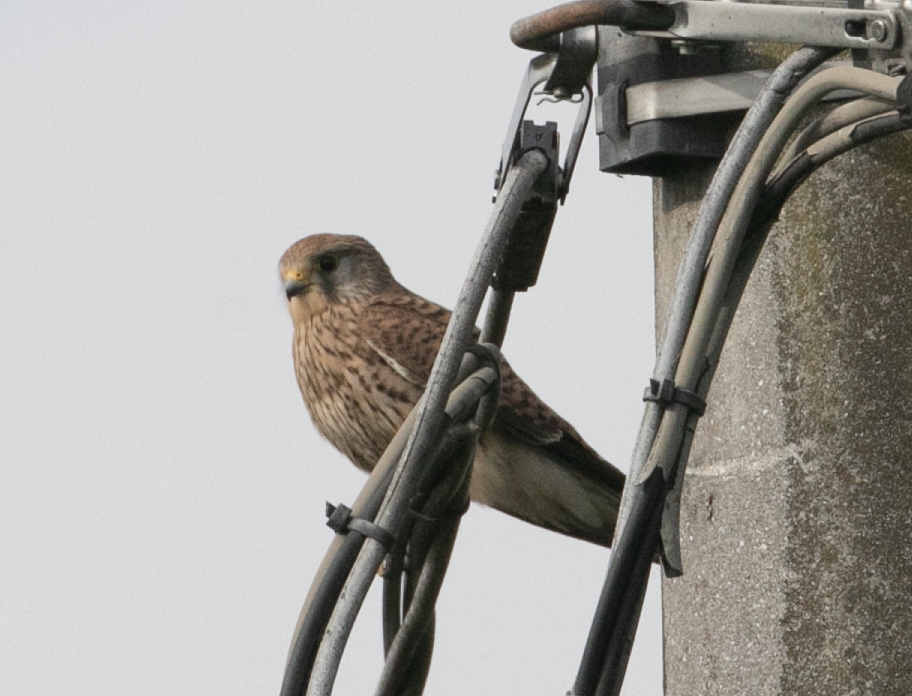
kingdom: Animalia
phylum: Chordata
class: Aves
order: Falconiformes
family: Falconidae
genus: Falco
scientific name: Falco tinnunculus
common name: Common kestrel
